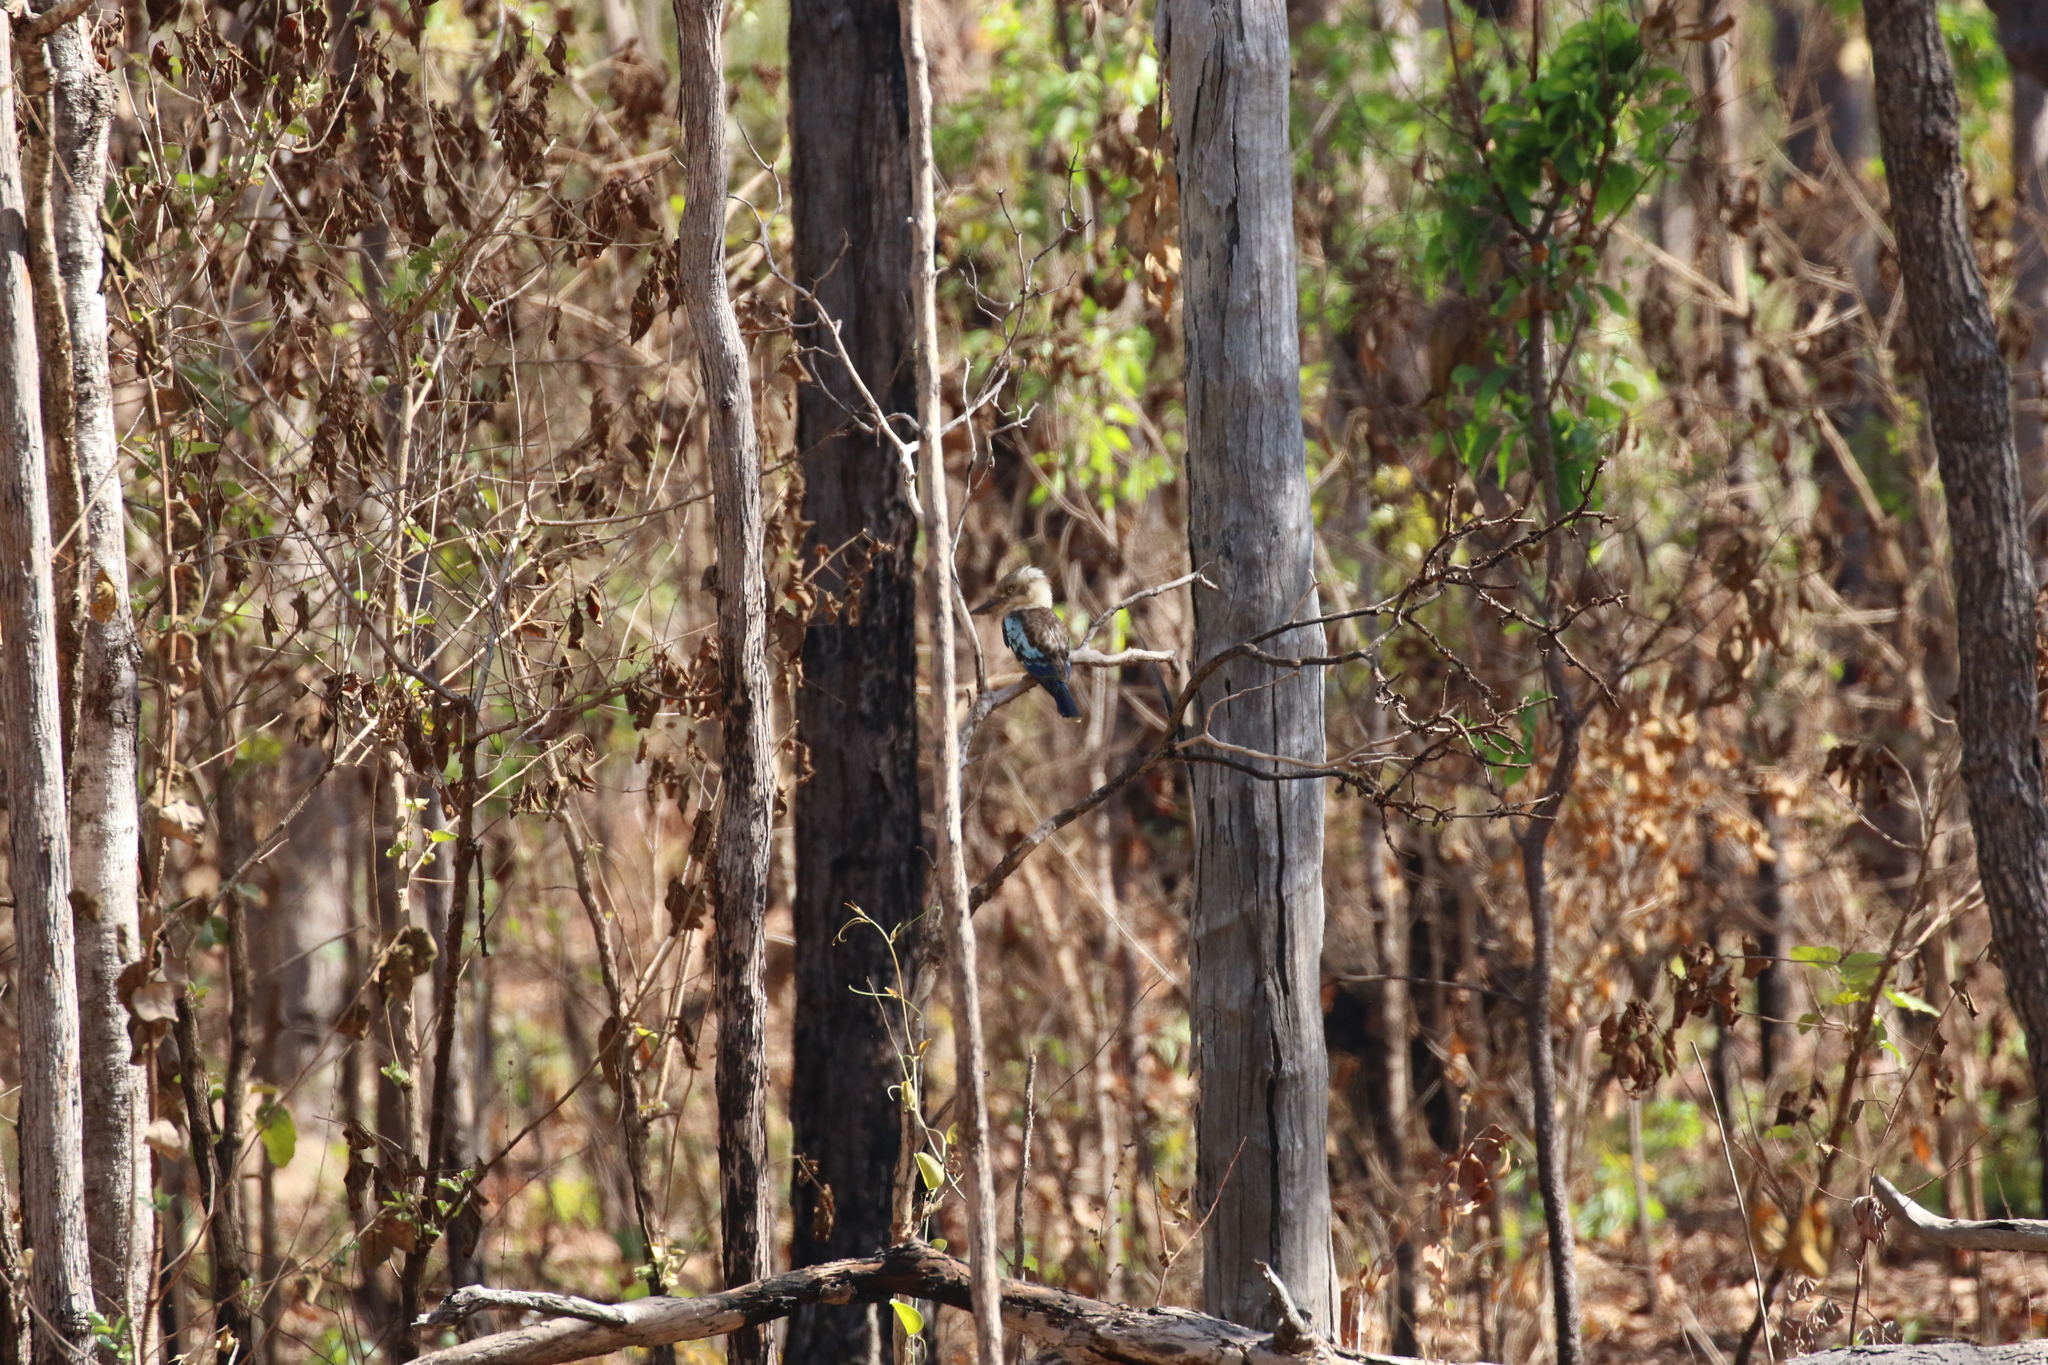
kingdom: Animalia
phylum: Chordata
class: Aves
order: Coraciiformes
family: Alcedinidae
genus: Dacelo
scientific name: Dacelo leachii
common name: Blue-winged kookaburra
